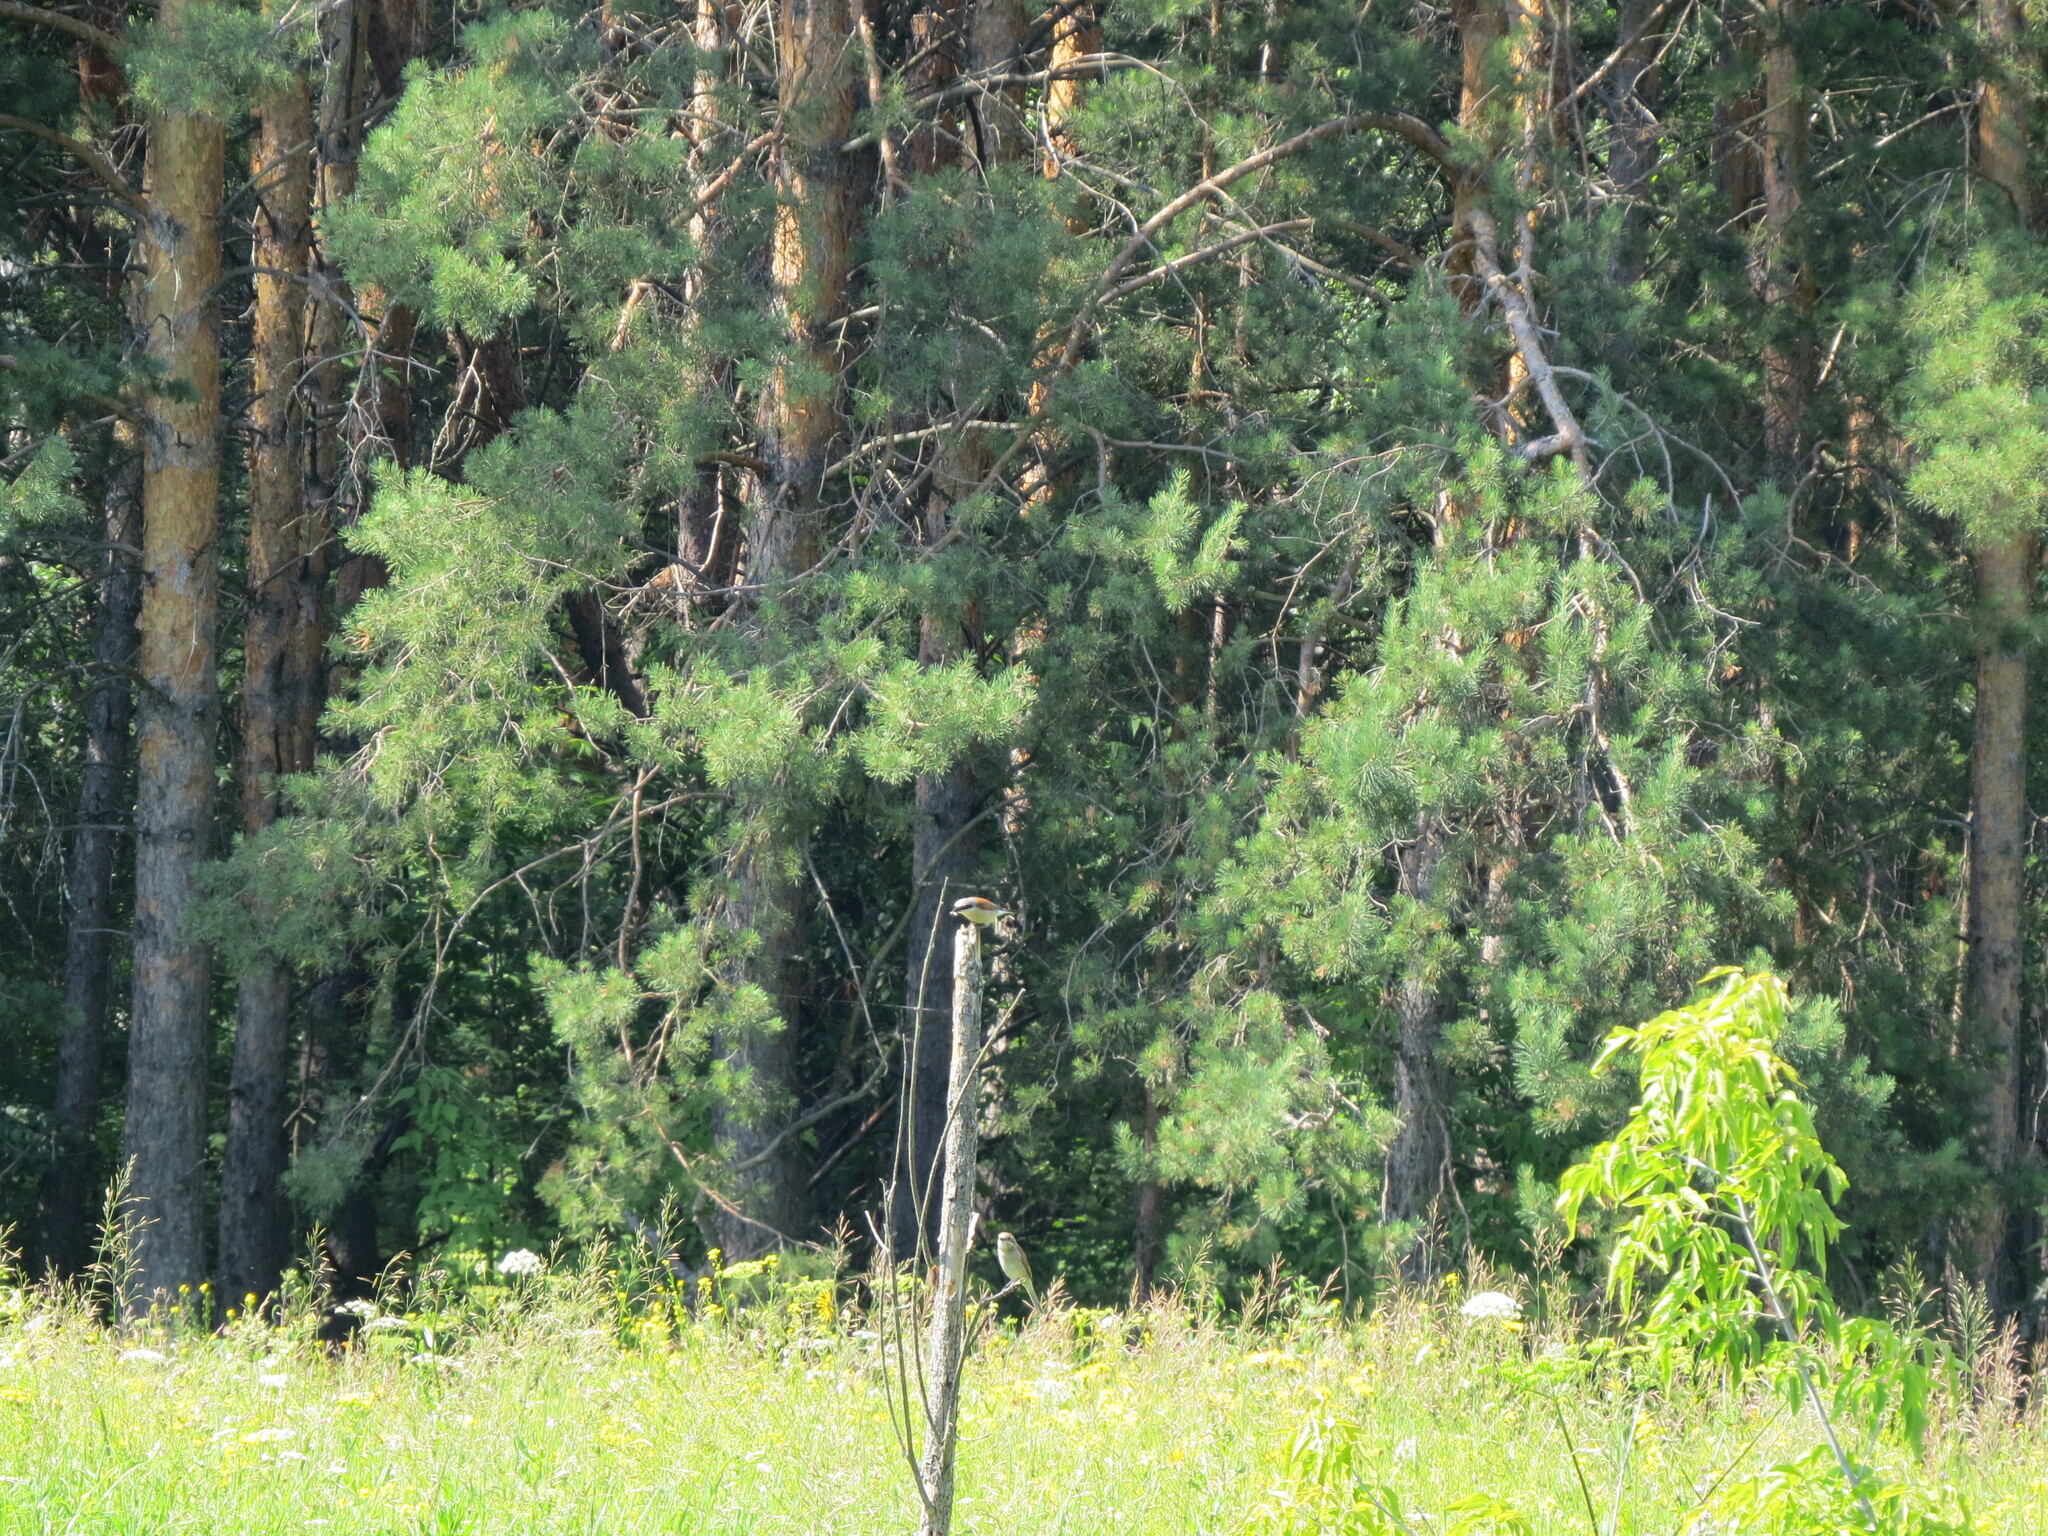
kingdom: Animalia
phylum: Chordata
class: Aves
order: Passeriformes
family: Laniidae
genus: Lanius
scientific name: Lanius collurio
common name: Red-backed shrike
